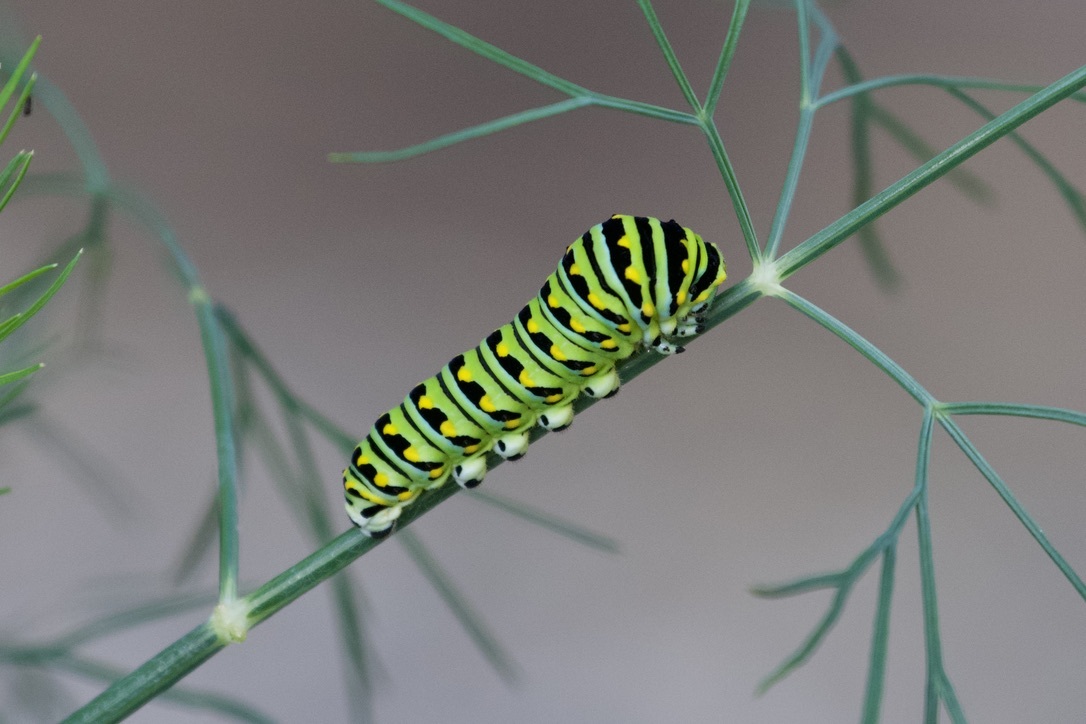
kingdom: Animalia
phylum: Arthropoda
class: Insecta
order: Lepidoptera
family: Papilionidae
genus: Papilio
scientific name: Papilio polyxenes
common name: Black swallowtail
